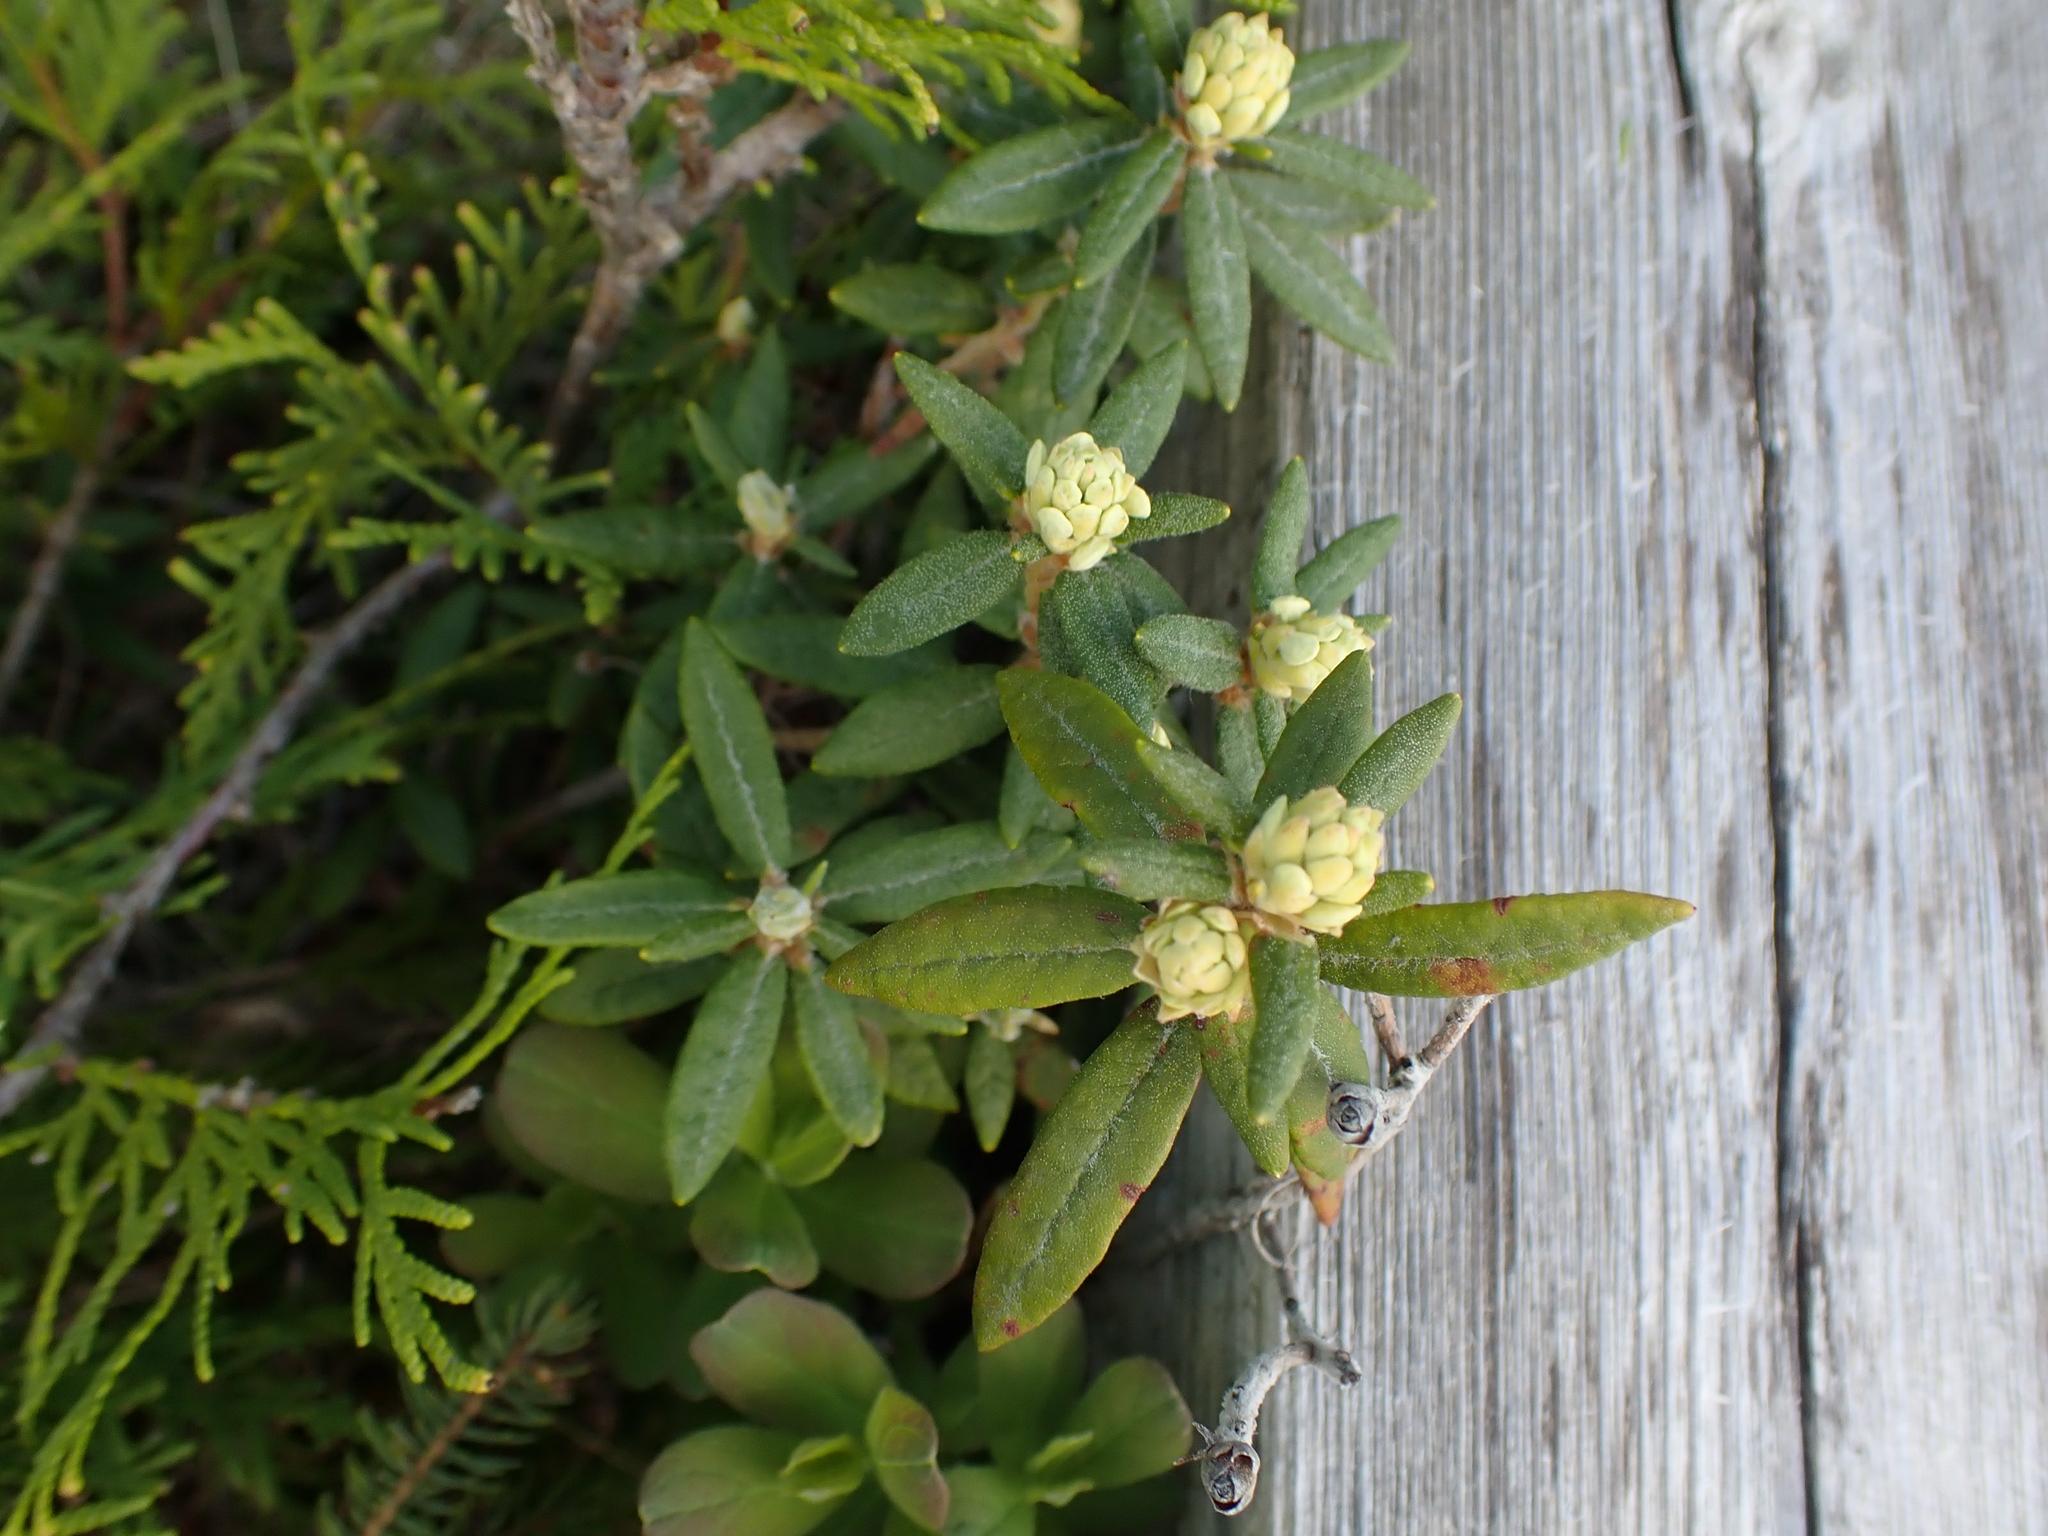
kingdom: Plantae
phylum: Tracheophyta
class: Magnoliopsida
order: Ericales
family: Ericaceae
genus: Rhododendron
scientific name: Rhododendron groenlandicum
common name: Bog labrador tea
